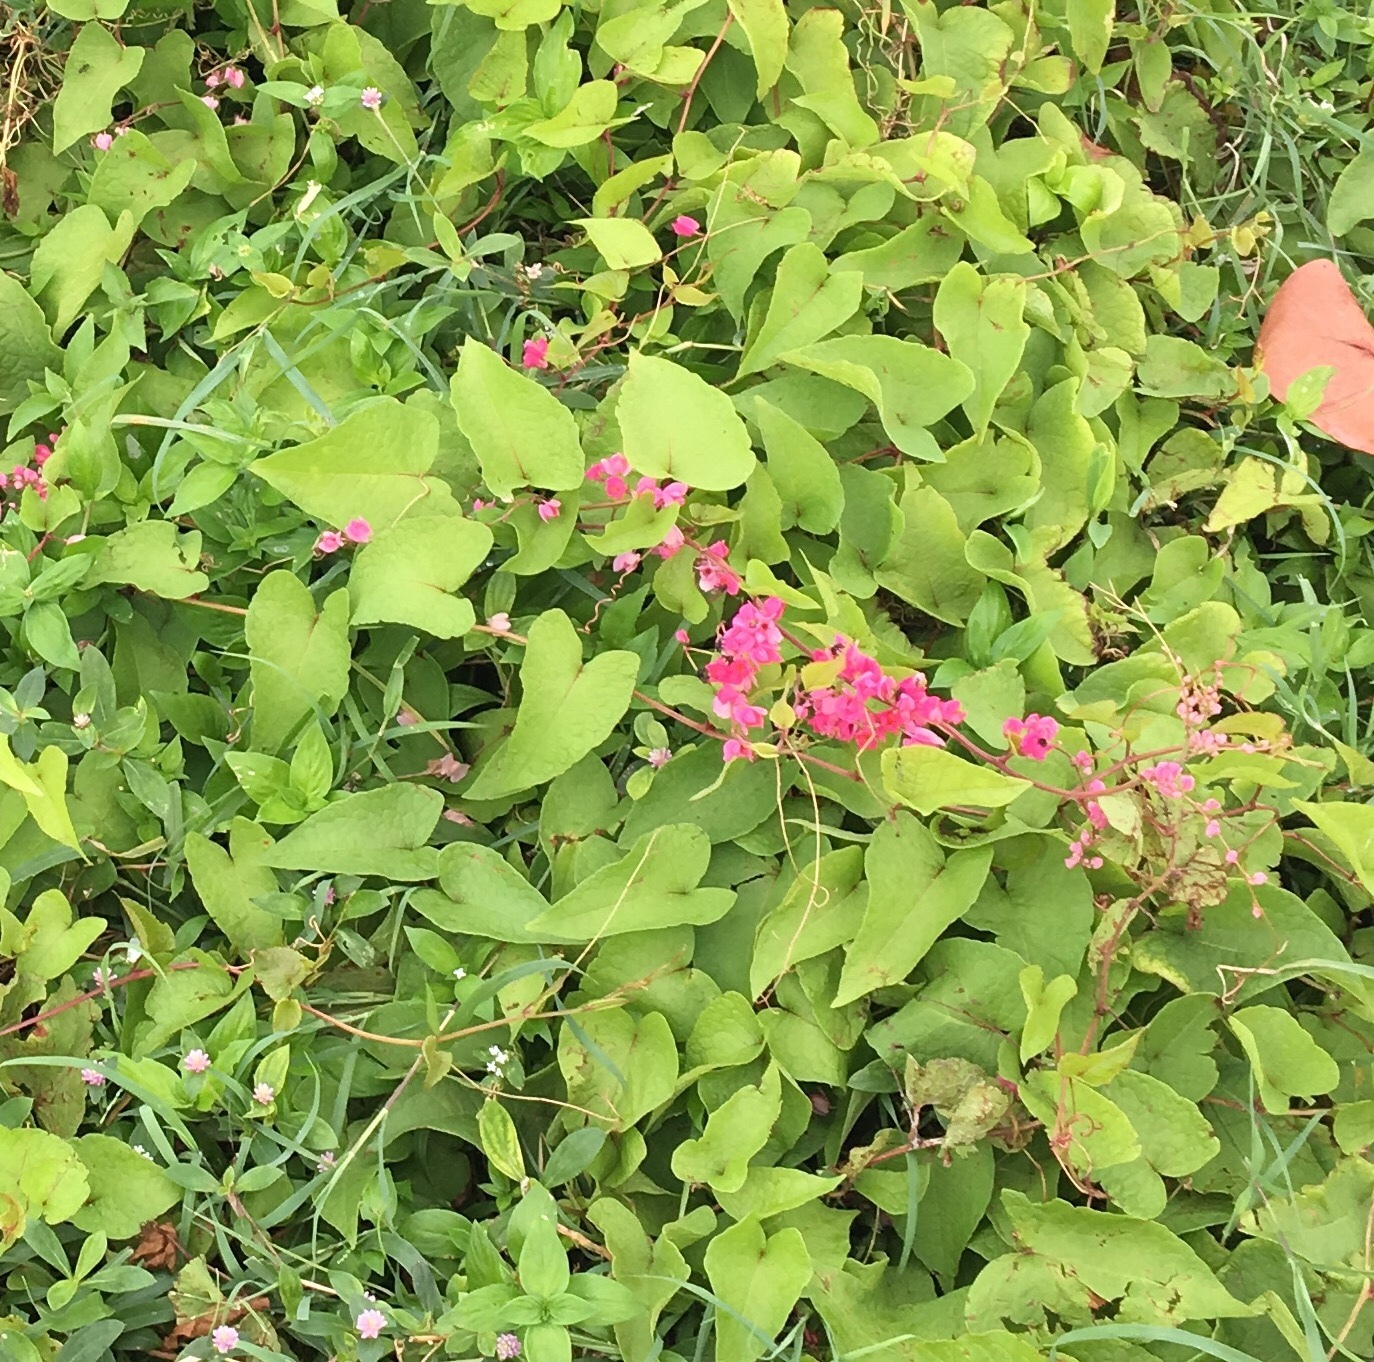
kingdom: Plantae
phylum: Tracheophyta
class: Magnoliopsida
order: Caryophyllales
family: Polygonaceae
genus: Antigonon
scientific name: Antigonon leptopus
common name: Coral vine
